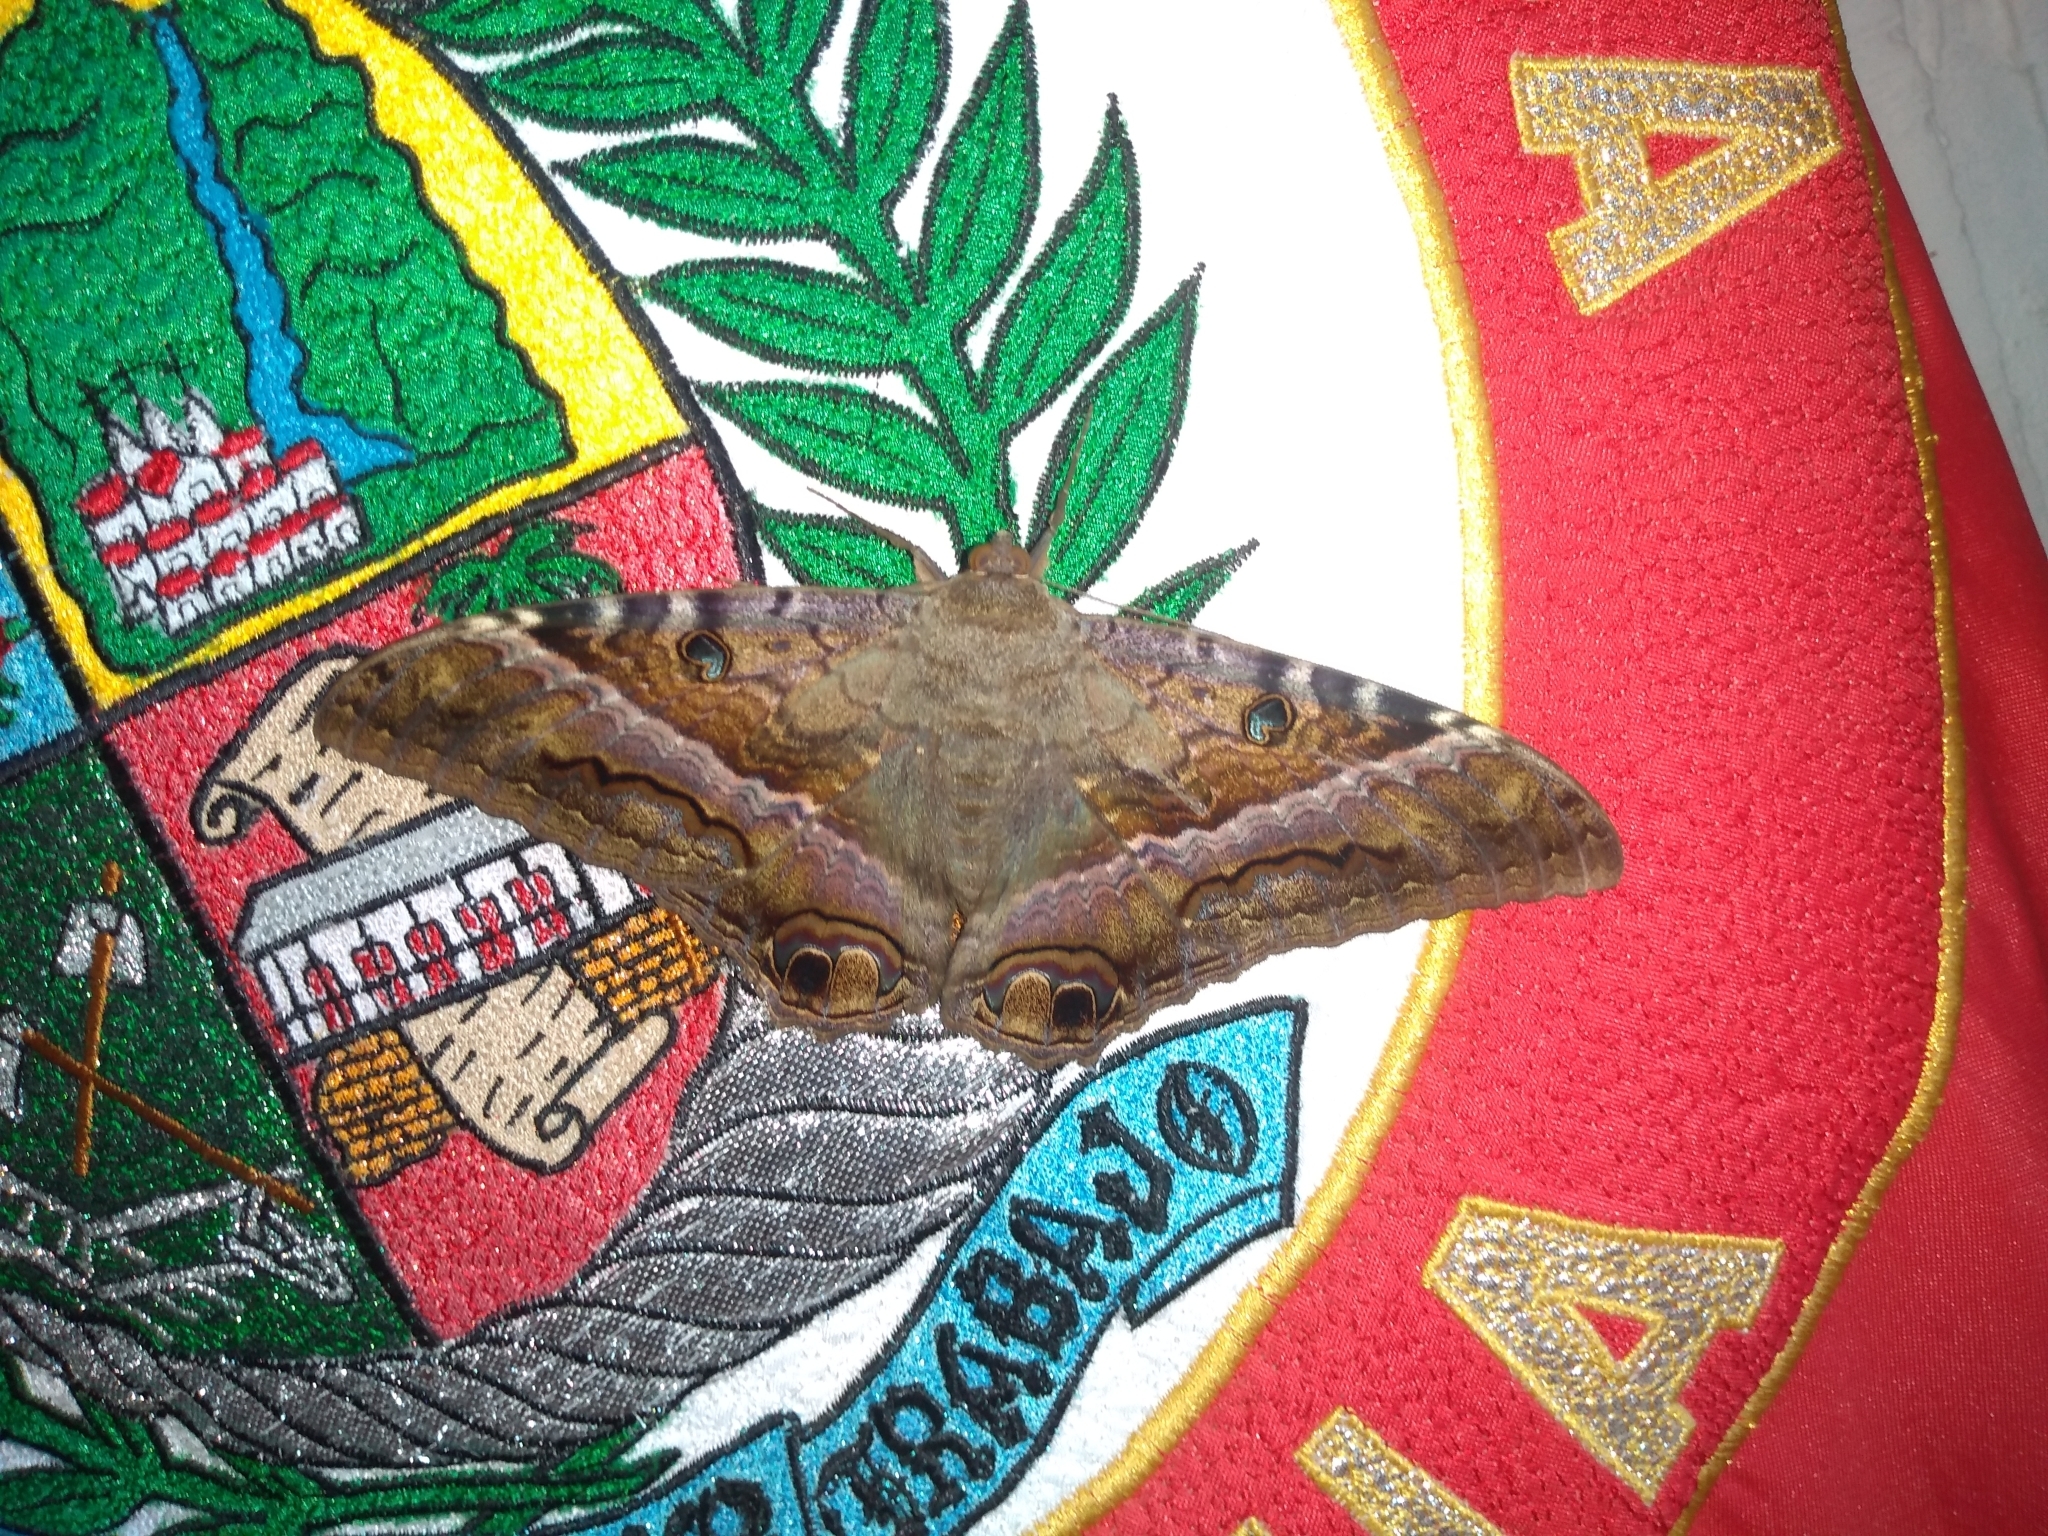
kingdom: Animalia
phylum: Arthropoda
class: Insecta
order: Lepidoptera
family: Erebidae
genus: Ascalapha
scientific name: Ascalapha odorata
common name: Black witch
